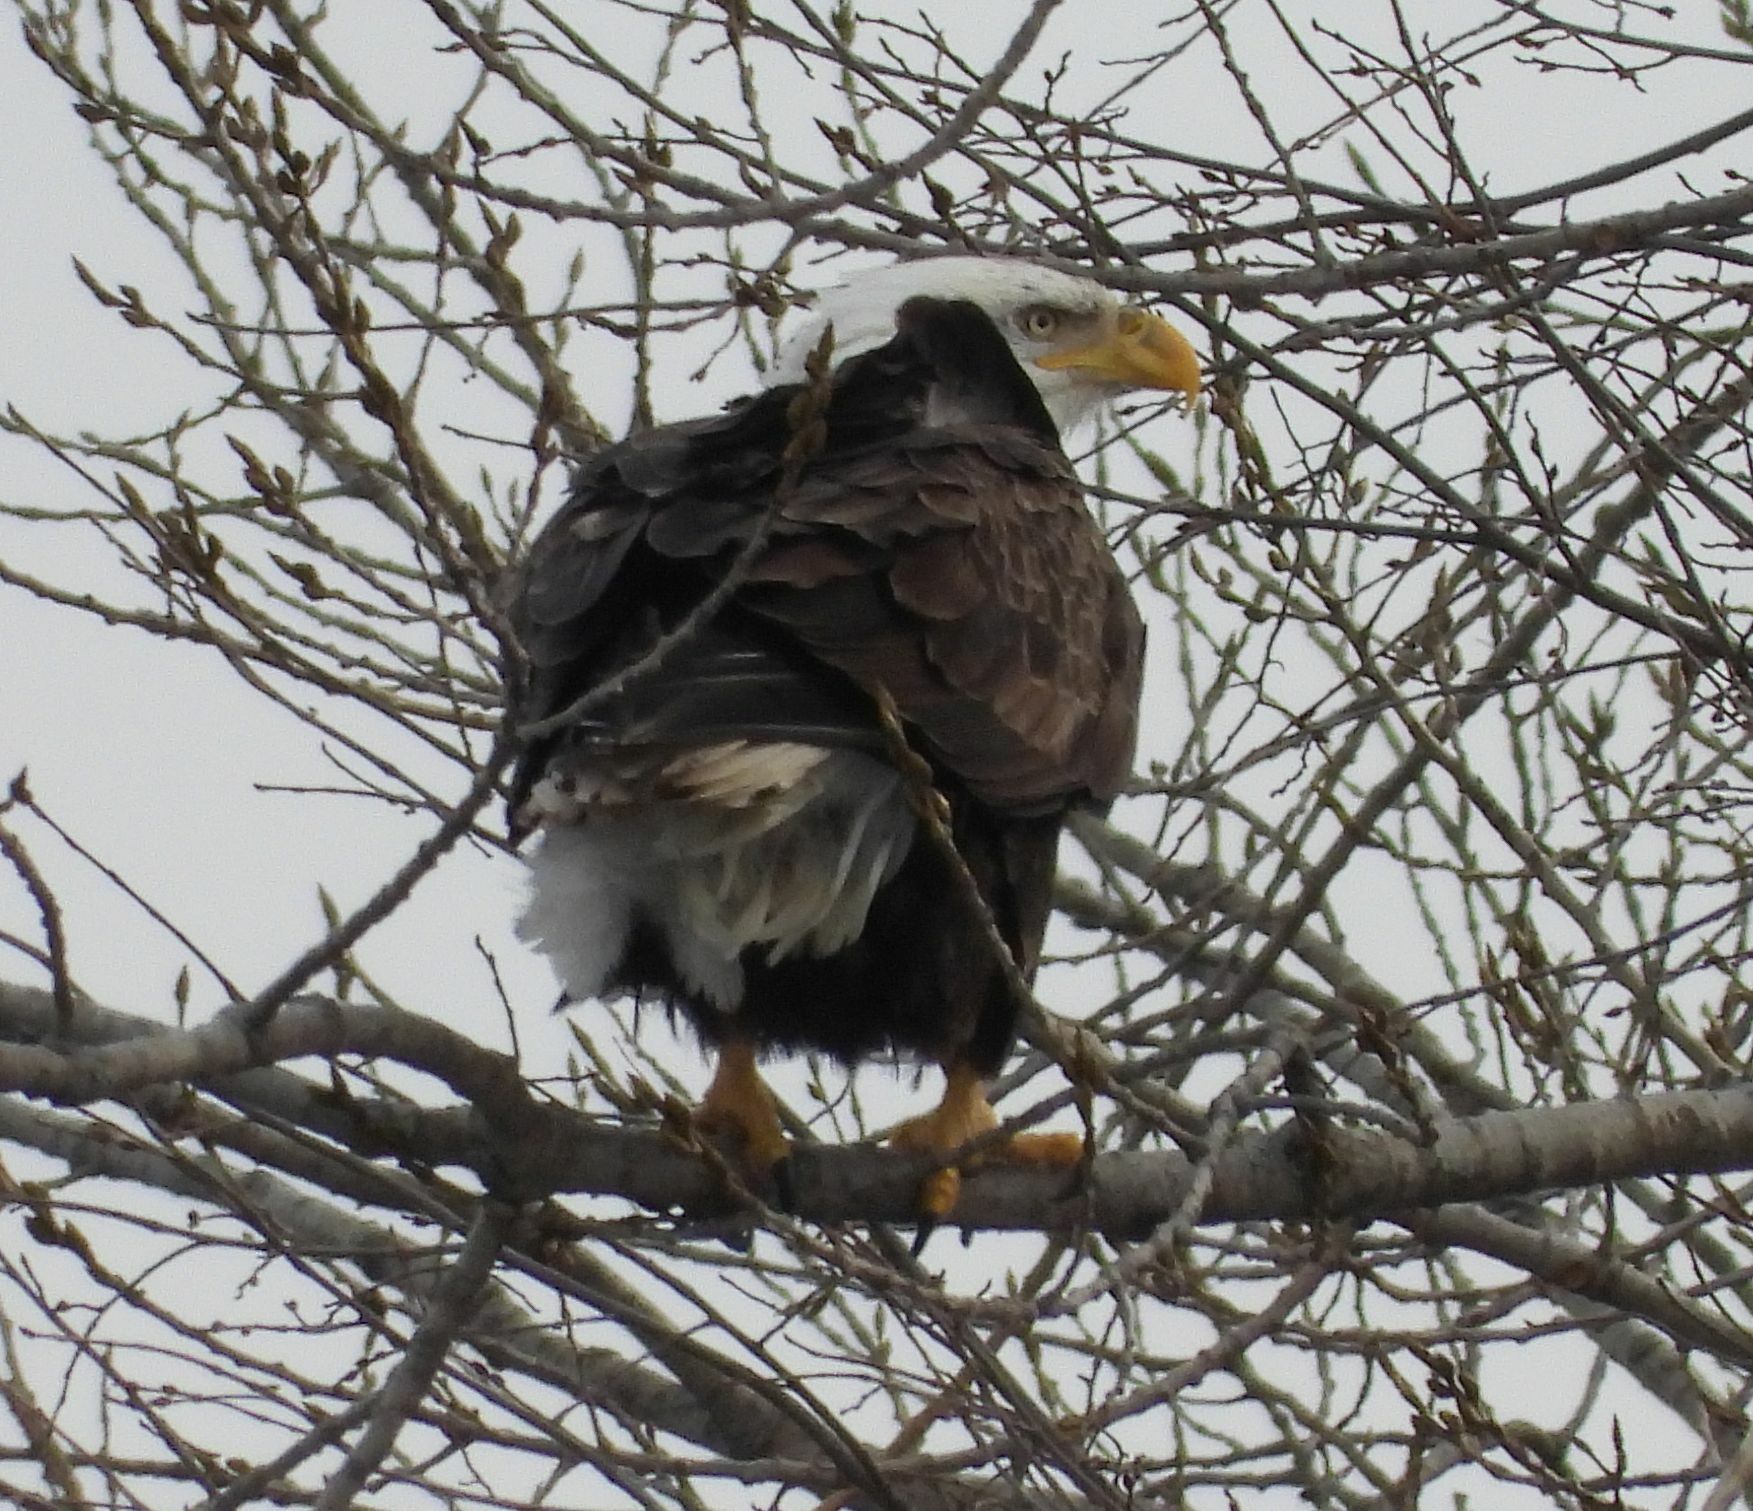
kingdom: Animalia
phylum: Chordata
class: Aves
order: Accipitriformes
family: Accipitridae
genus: Haliaeetus
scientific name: Haliaeetus leucocephalus
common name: Bald eagle
